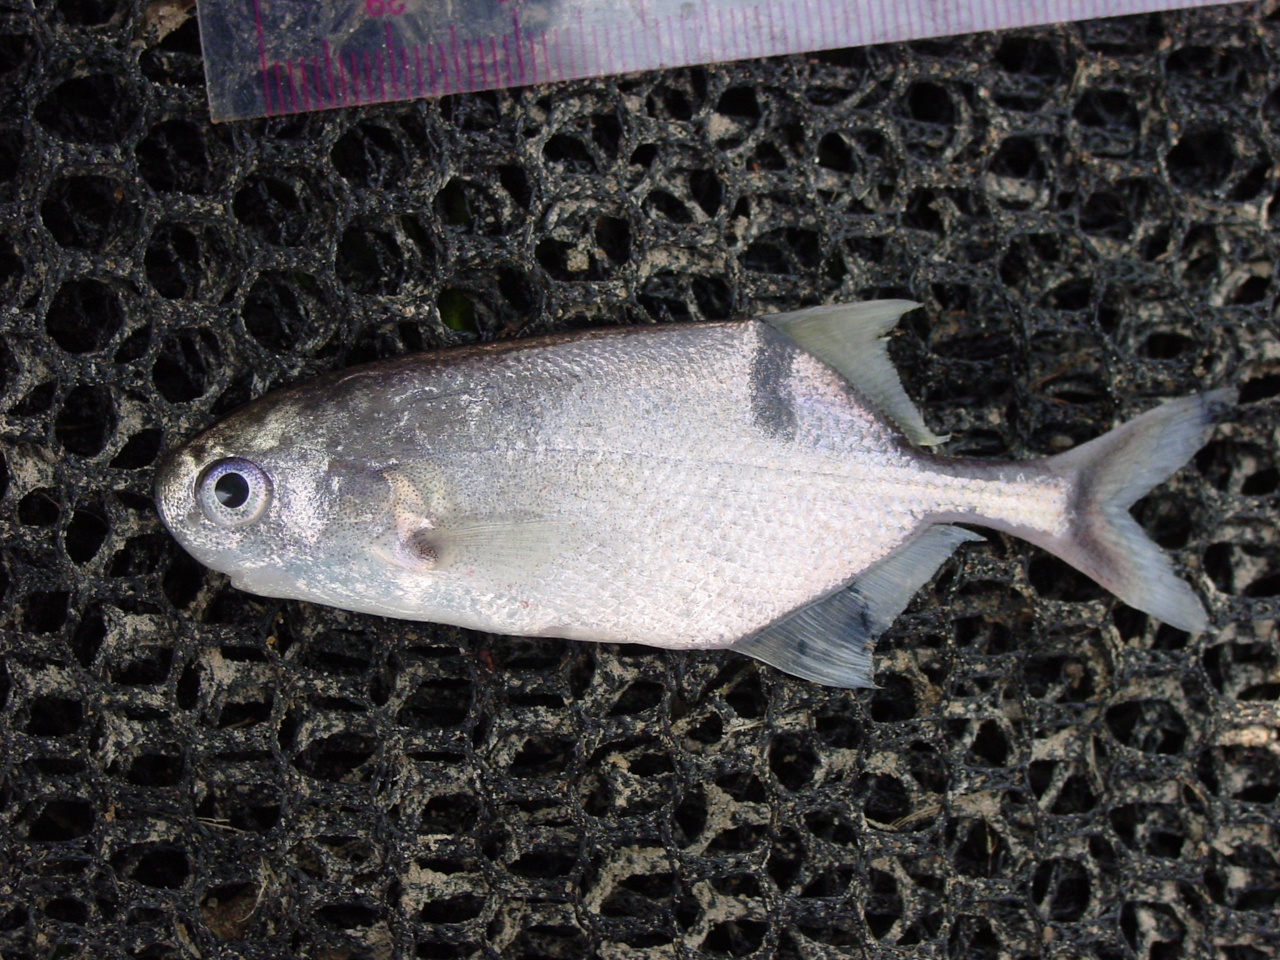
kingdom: Animalia
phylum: Chordata
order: Osteoglossiformes
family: Mormyridae
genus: Petrocephalus
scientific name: Petrocephalus zakoni
